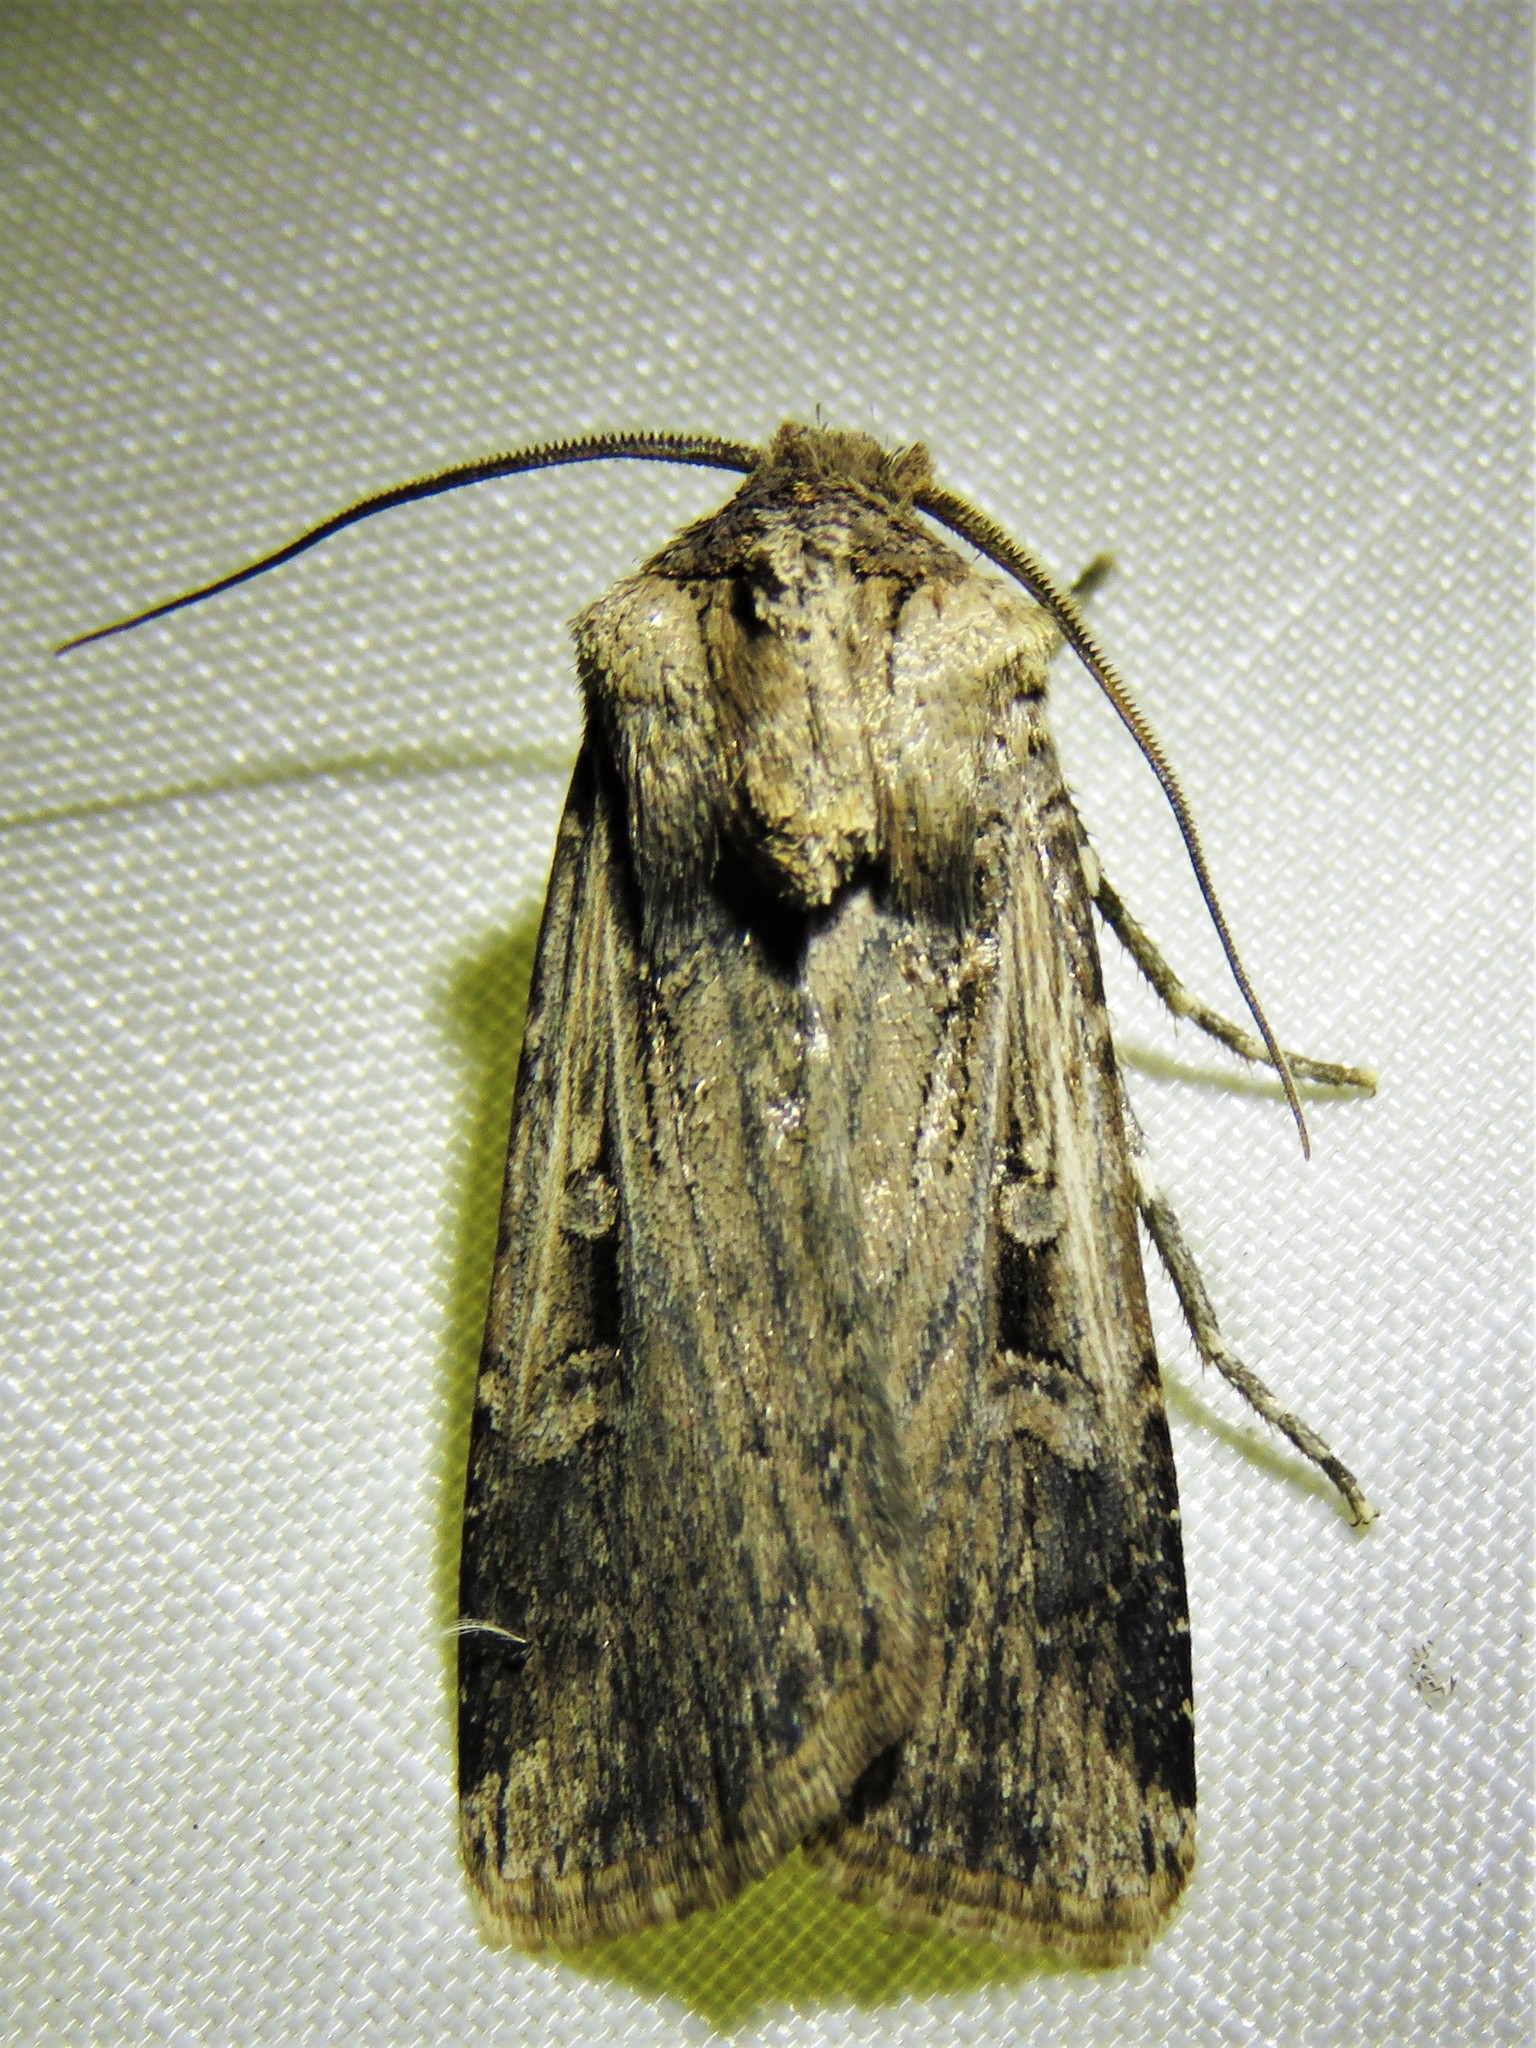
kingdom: Animalia
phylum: Arthropoda
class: Insecta
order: Lepidoptera
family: Noctuidae
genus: Feltia
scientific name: Feltia subterranea
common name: Granulate cutworm
